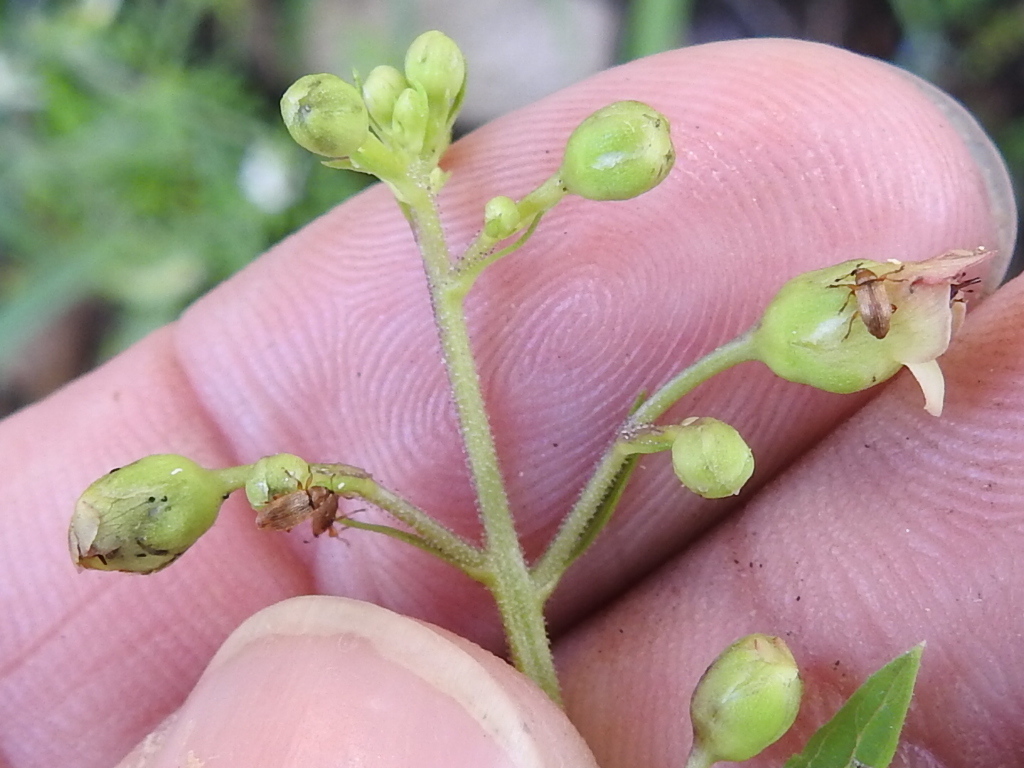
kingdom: Plantae
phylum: Tracheophyta
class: Magnoliopsida
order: Lamiales
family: Scrophulariaceae
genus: Scrophularia
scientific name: Scrophularia parviflora
